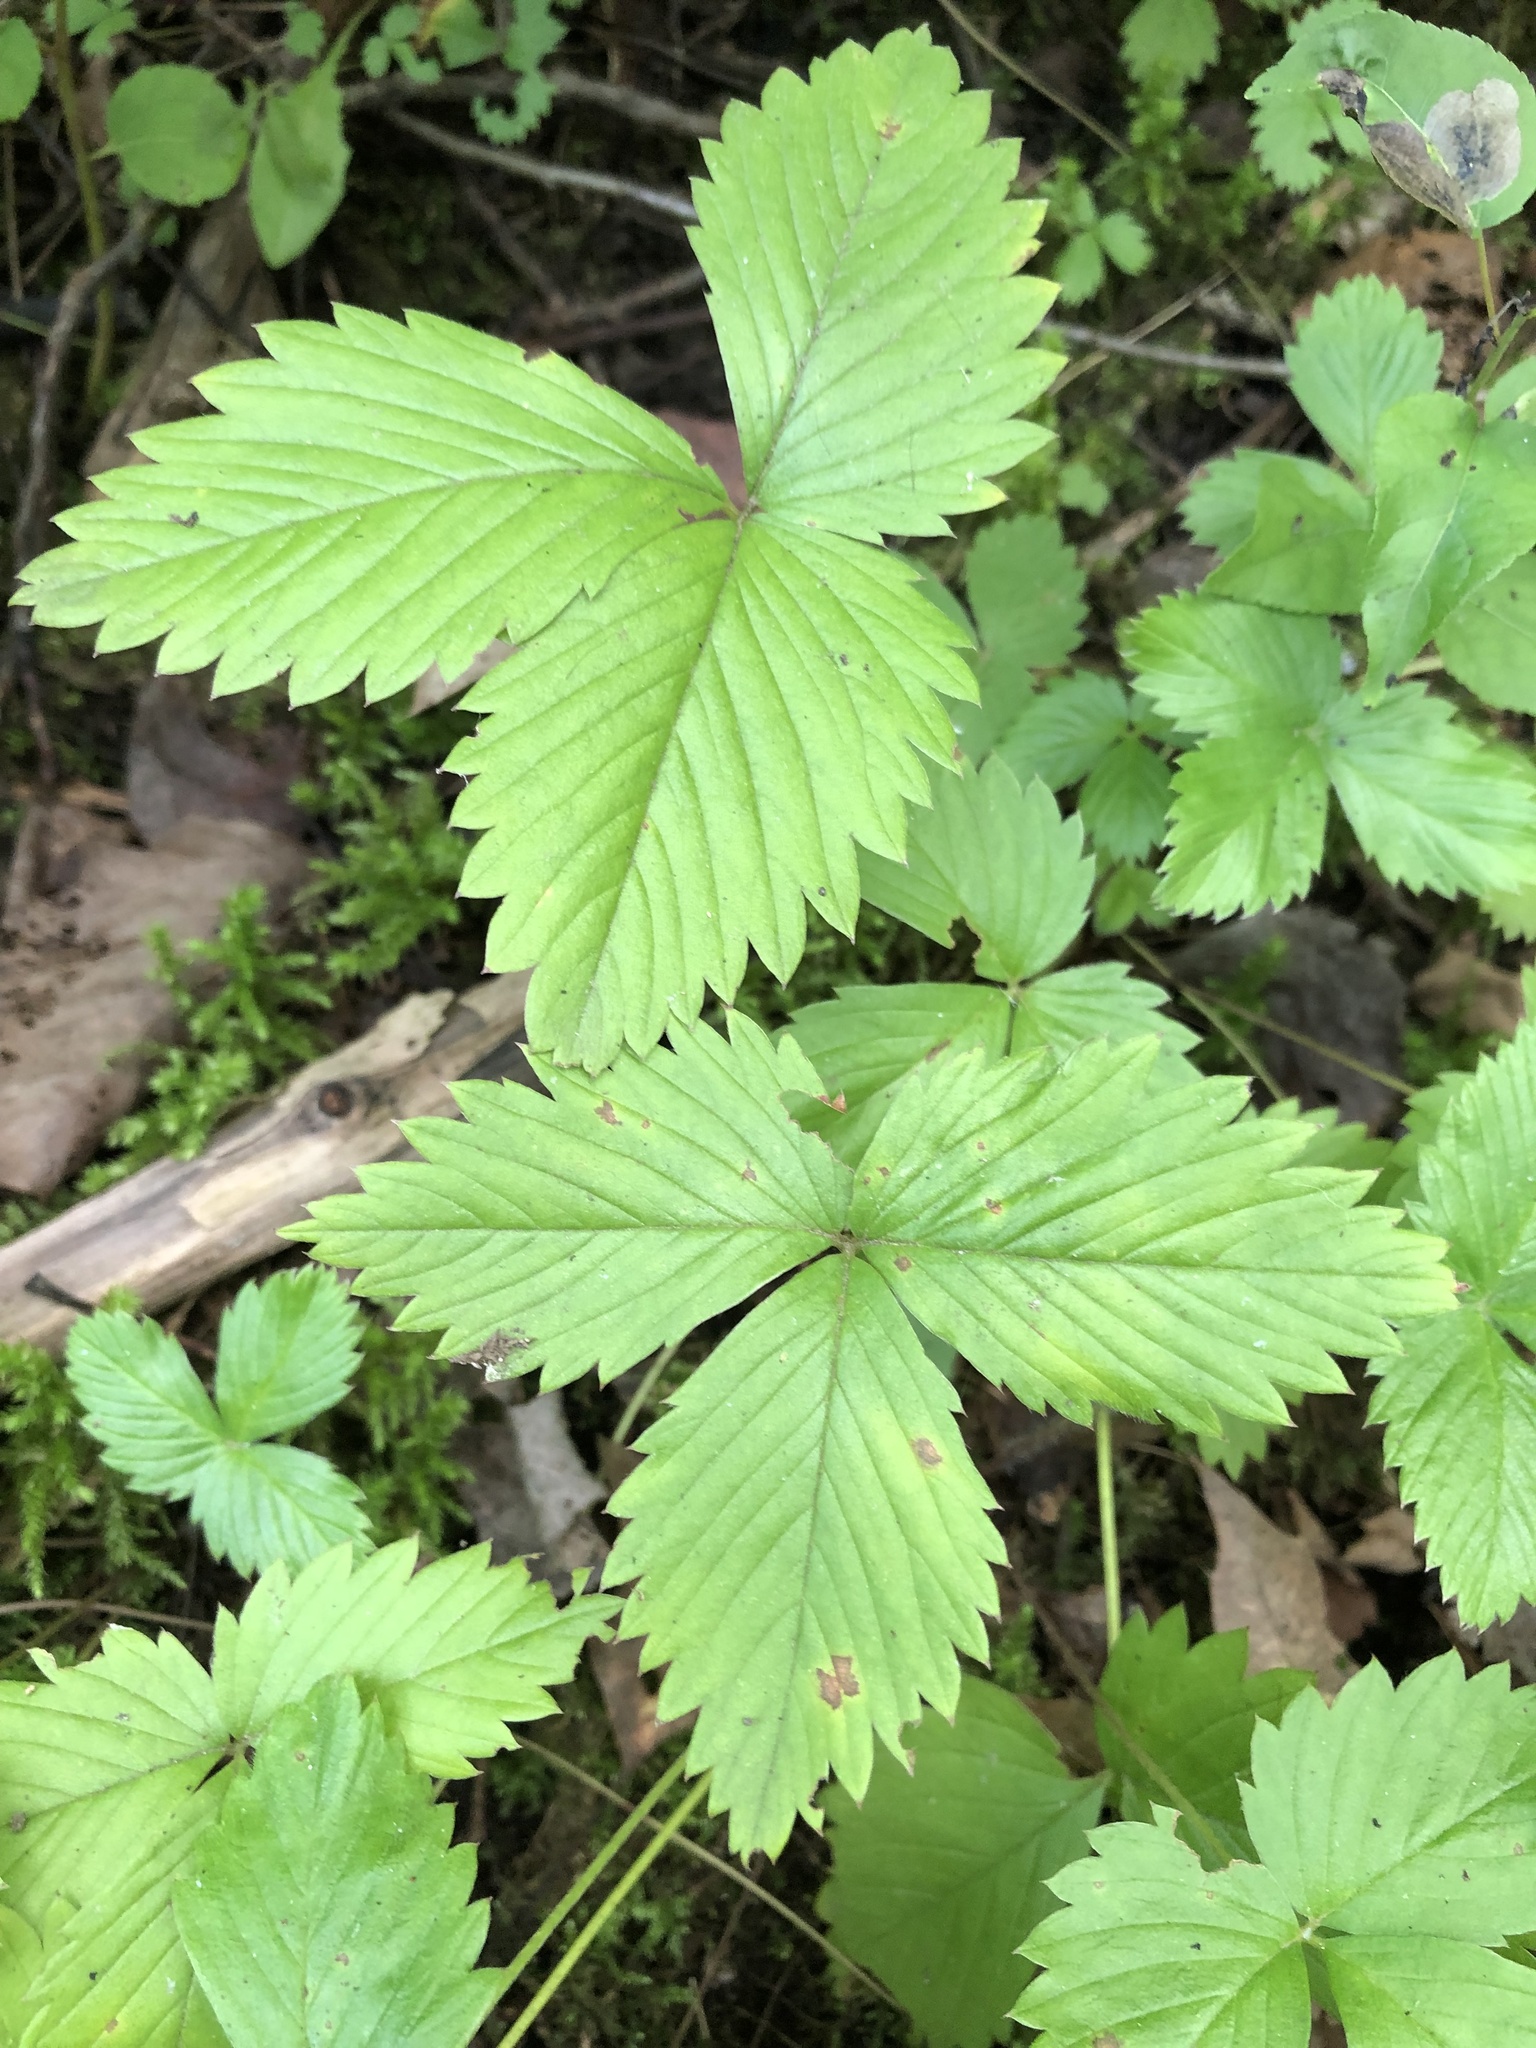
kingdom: Plantae
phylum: Tracheophyta
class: Magnoliopsida
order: Rosales
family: Rosaceae
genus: Fragaria
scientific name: Fragaria vesca
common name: Wild strawberry
